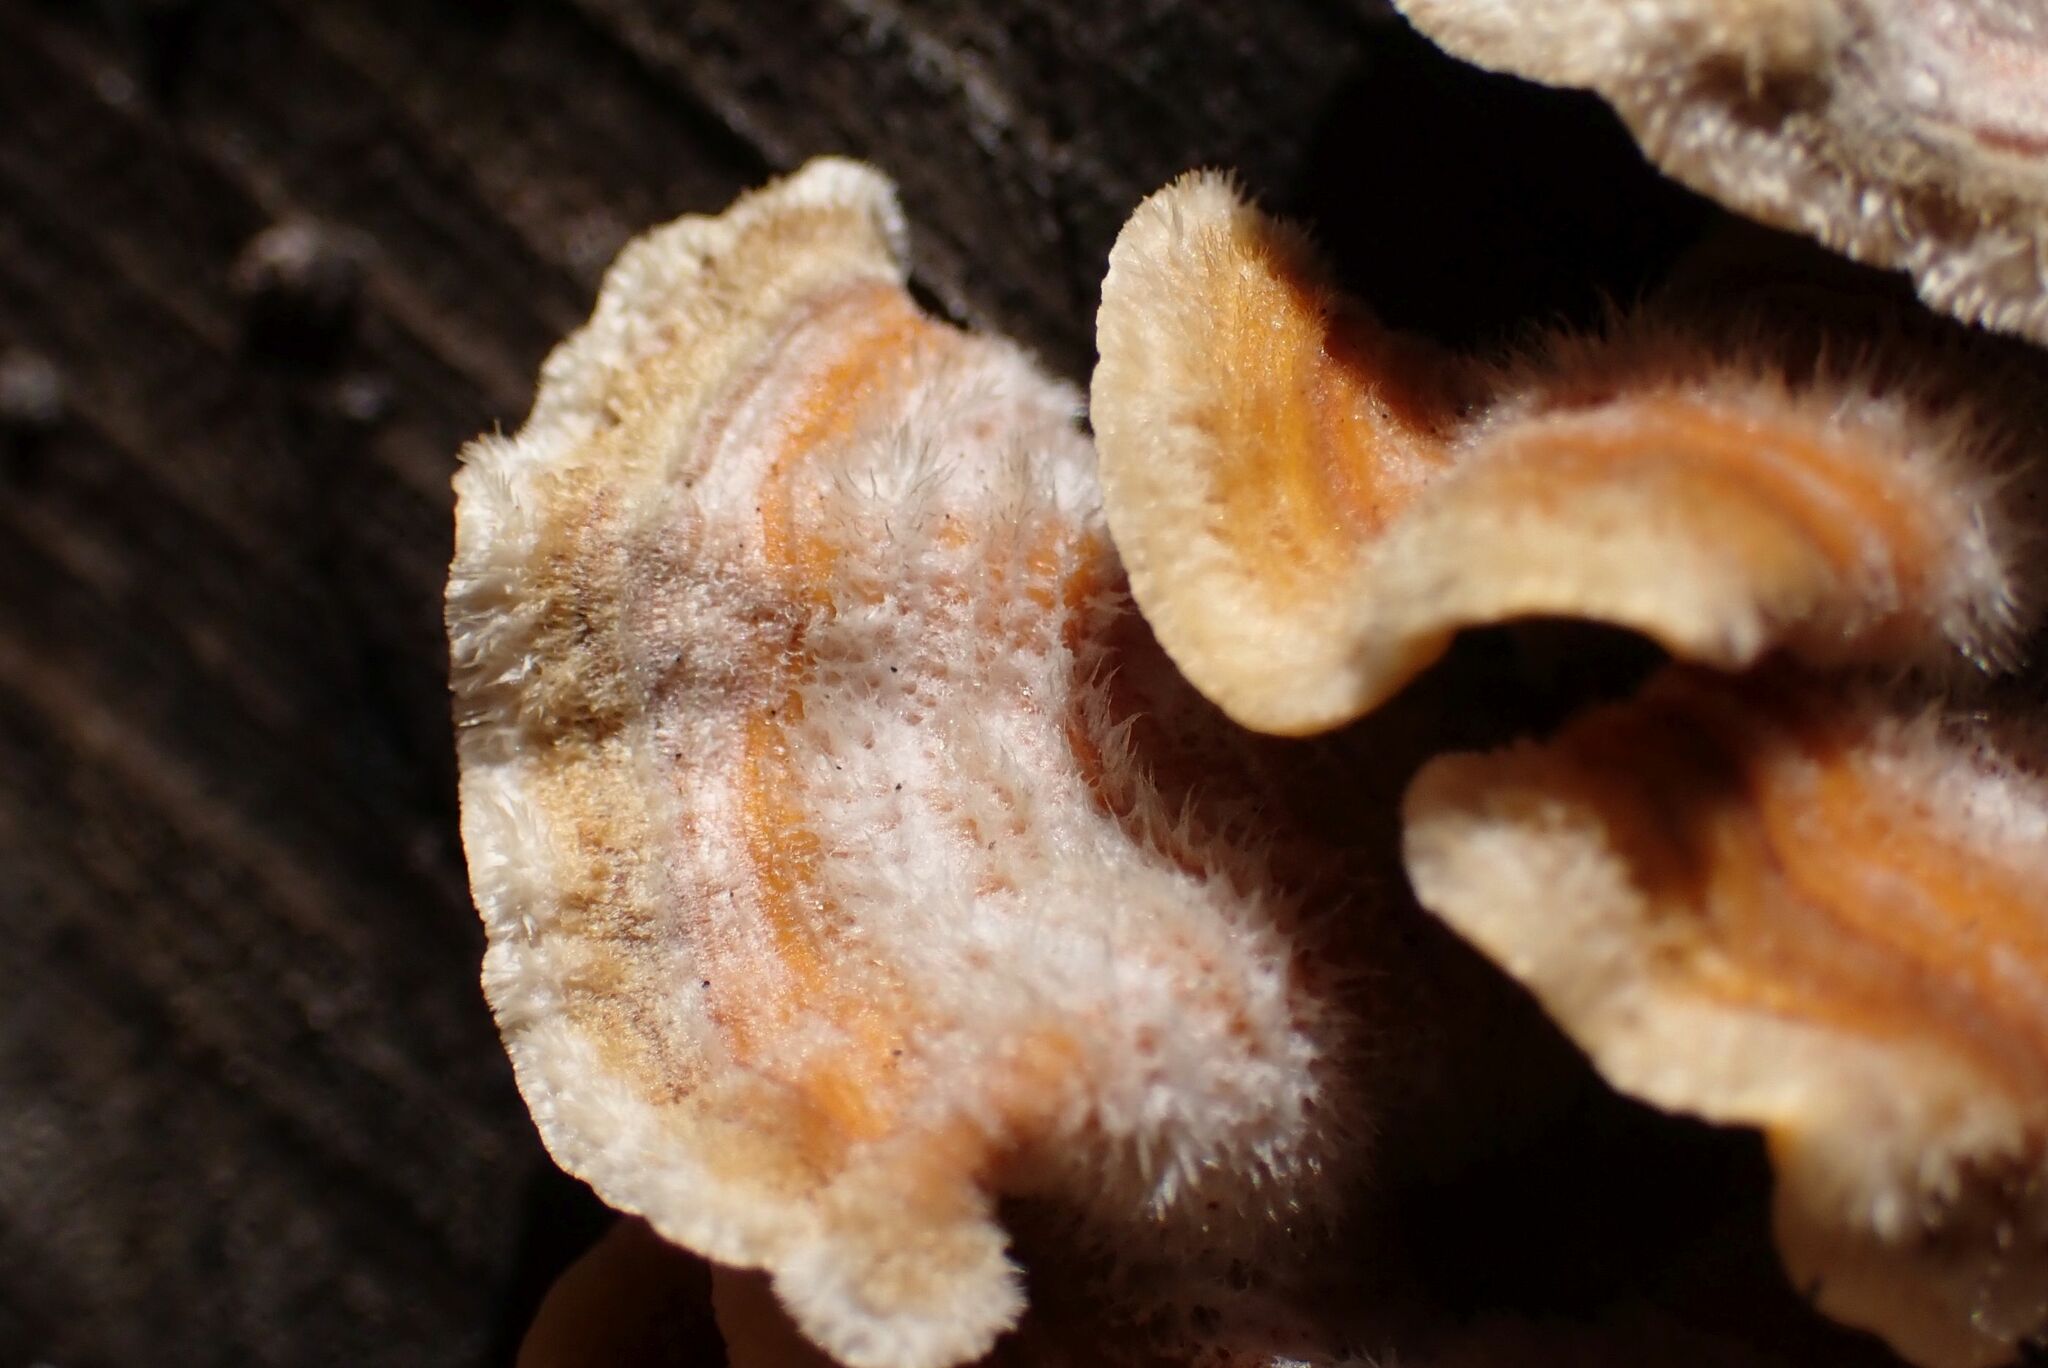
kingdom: Fungi
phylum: Basidiomycota
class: Agaricomycetes
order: Russulales
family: Stereaceae
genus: Stereum
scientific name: Stereum hirsutum
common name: Hairy curtain crust
